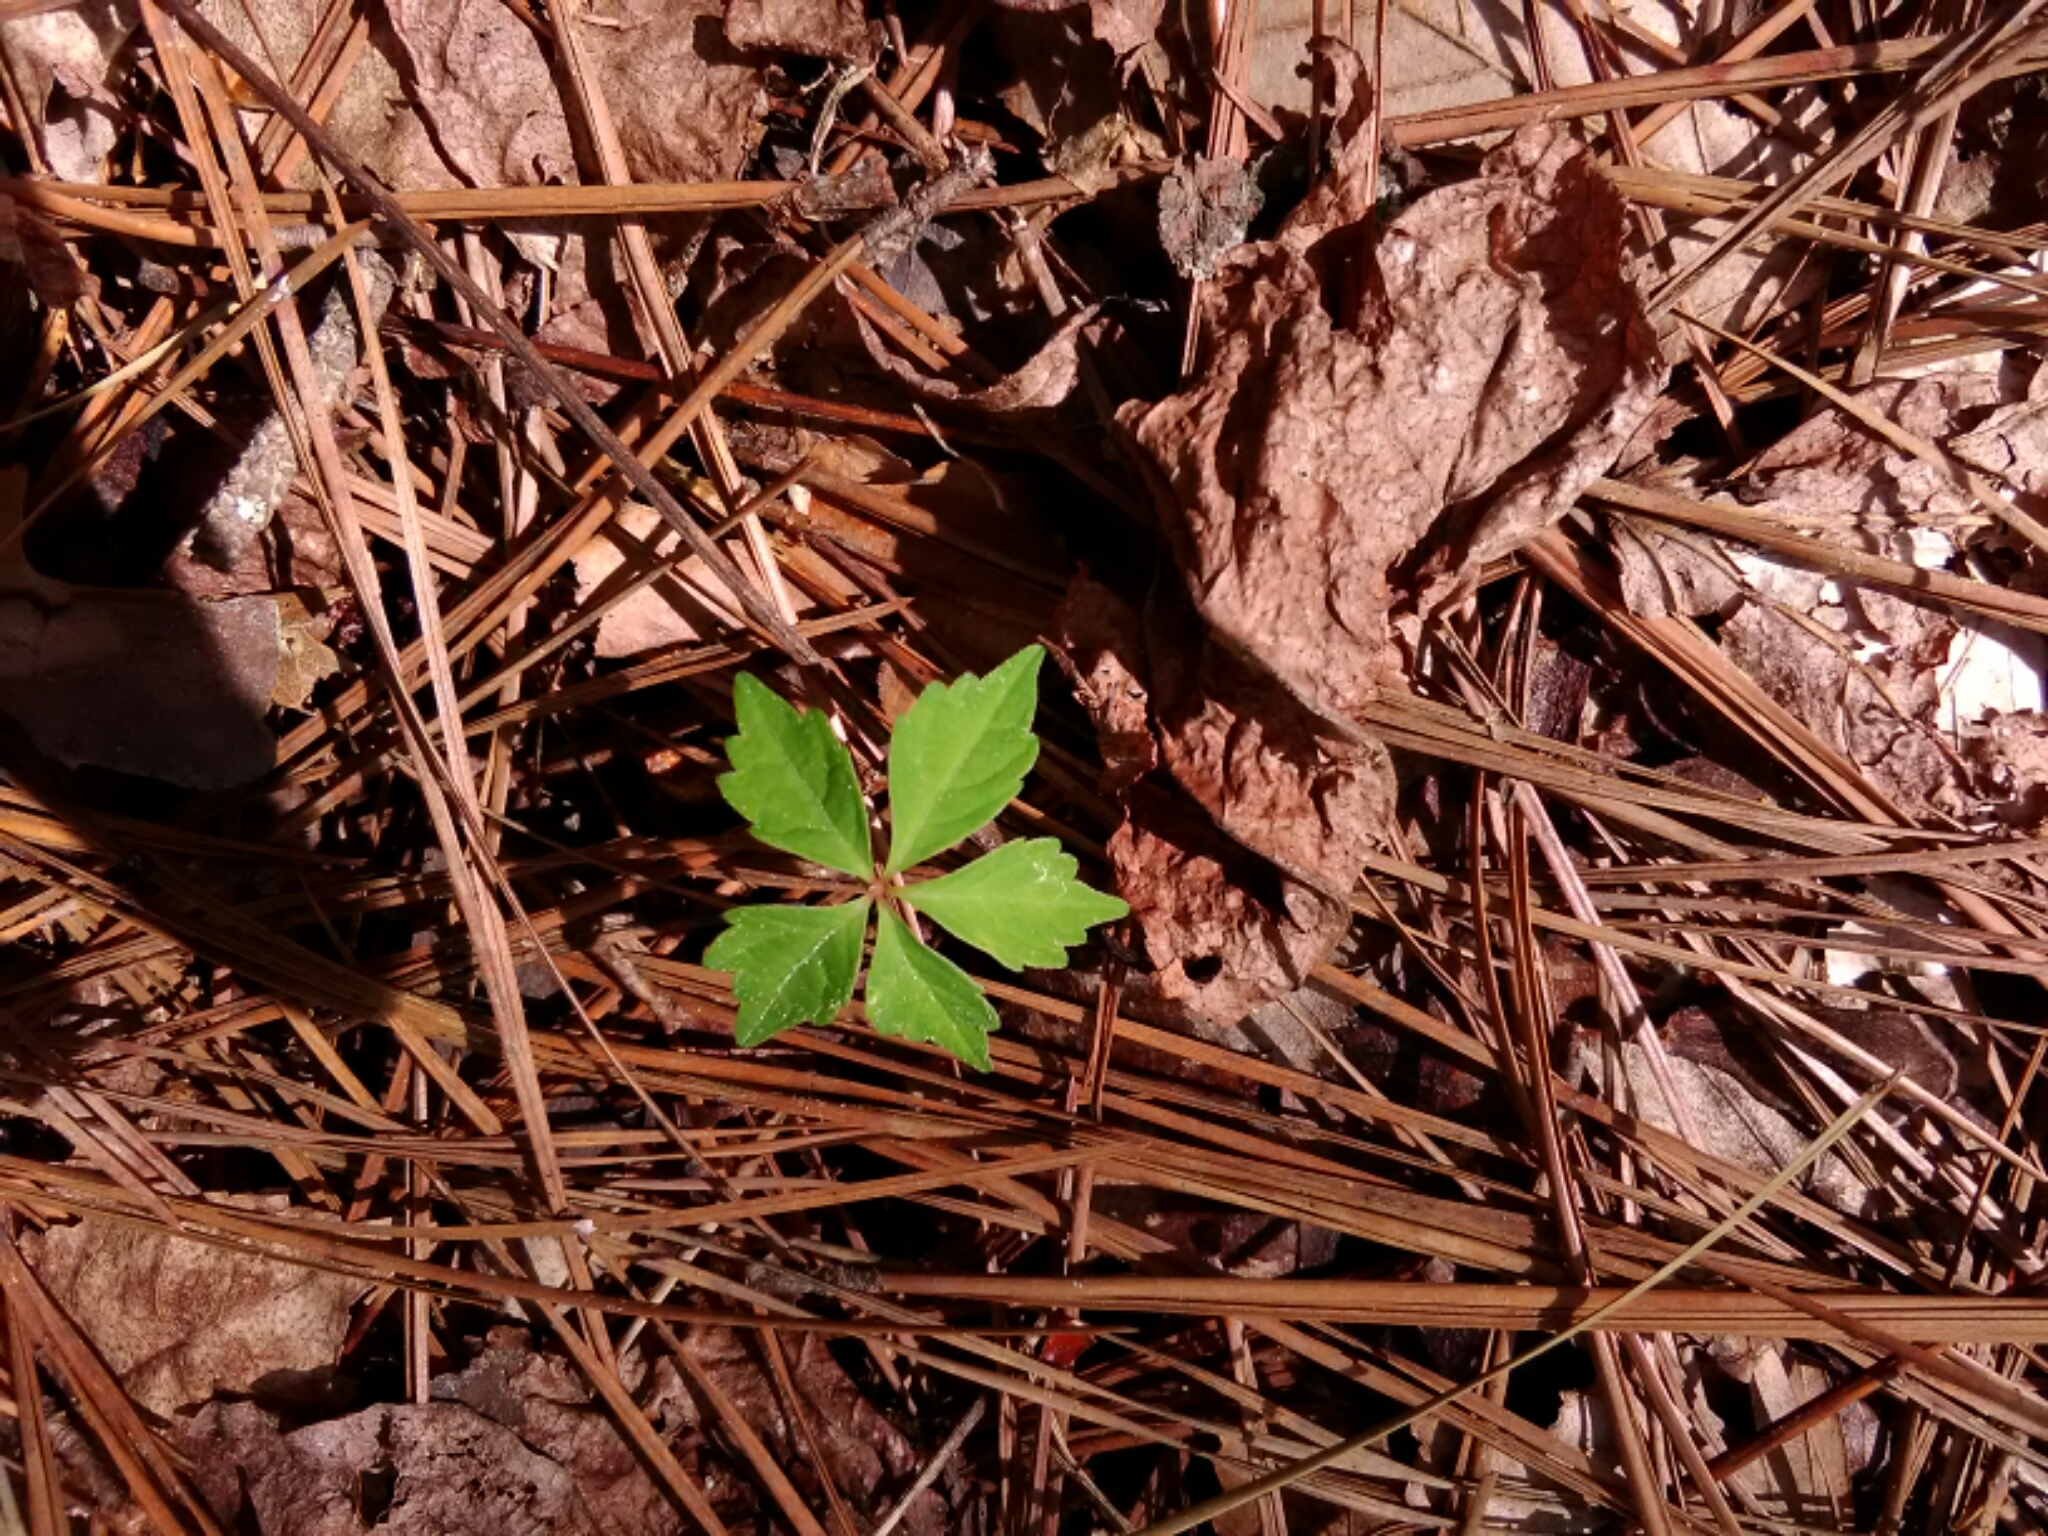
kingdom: Plantae
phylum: Tracheophyta
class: Magnoliopsida
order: Vitales
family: Vitaceae
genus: Parthenocissus
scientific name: Parthenocissus quinquefolia
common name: Virginia-creeper
